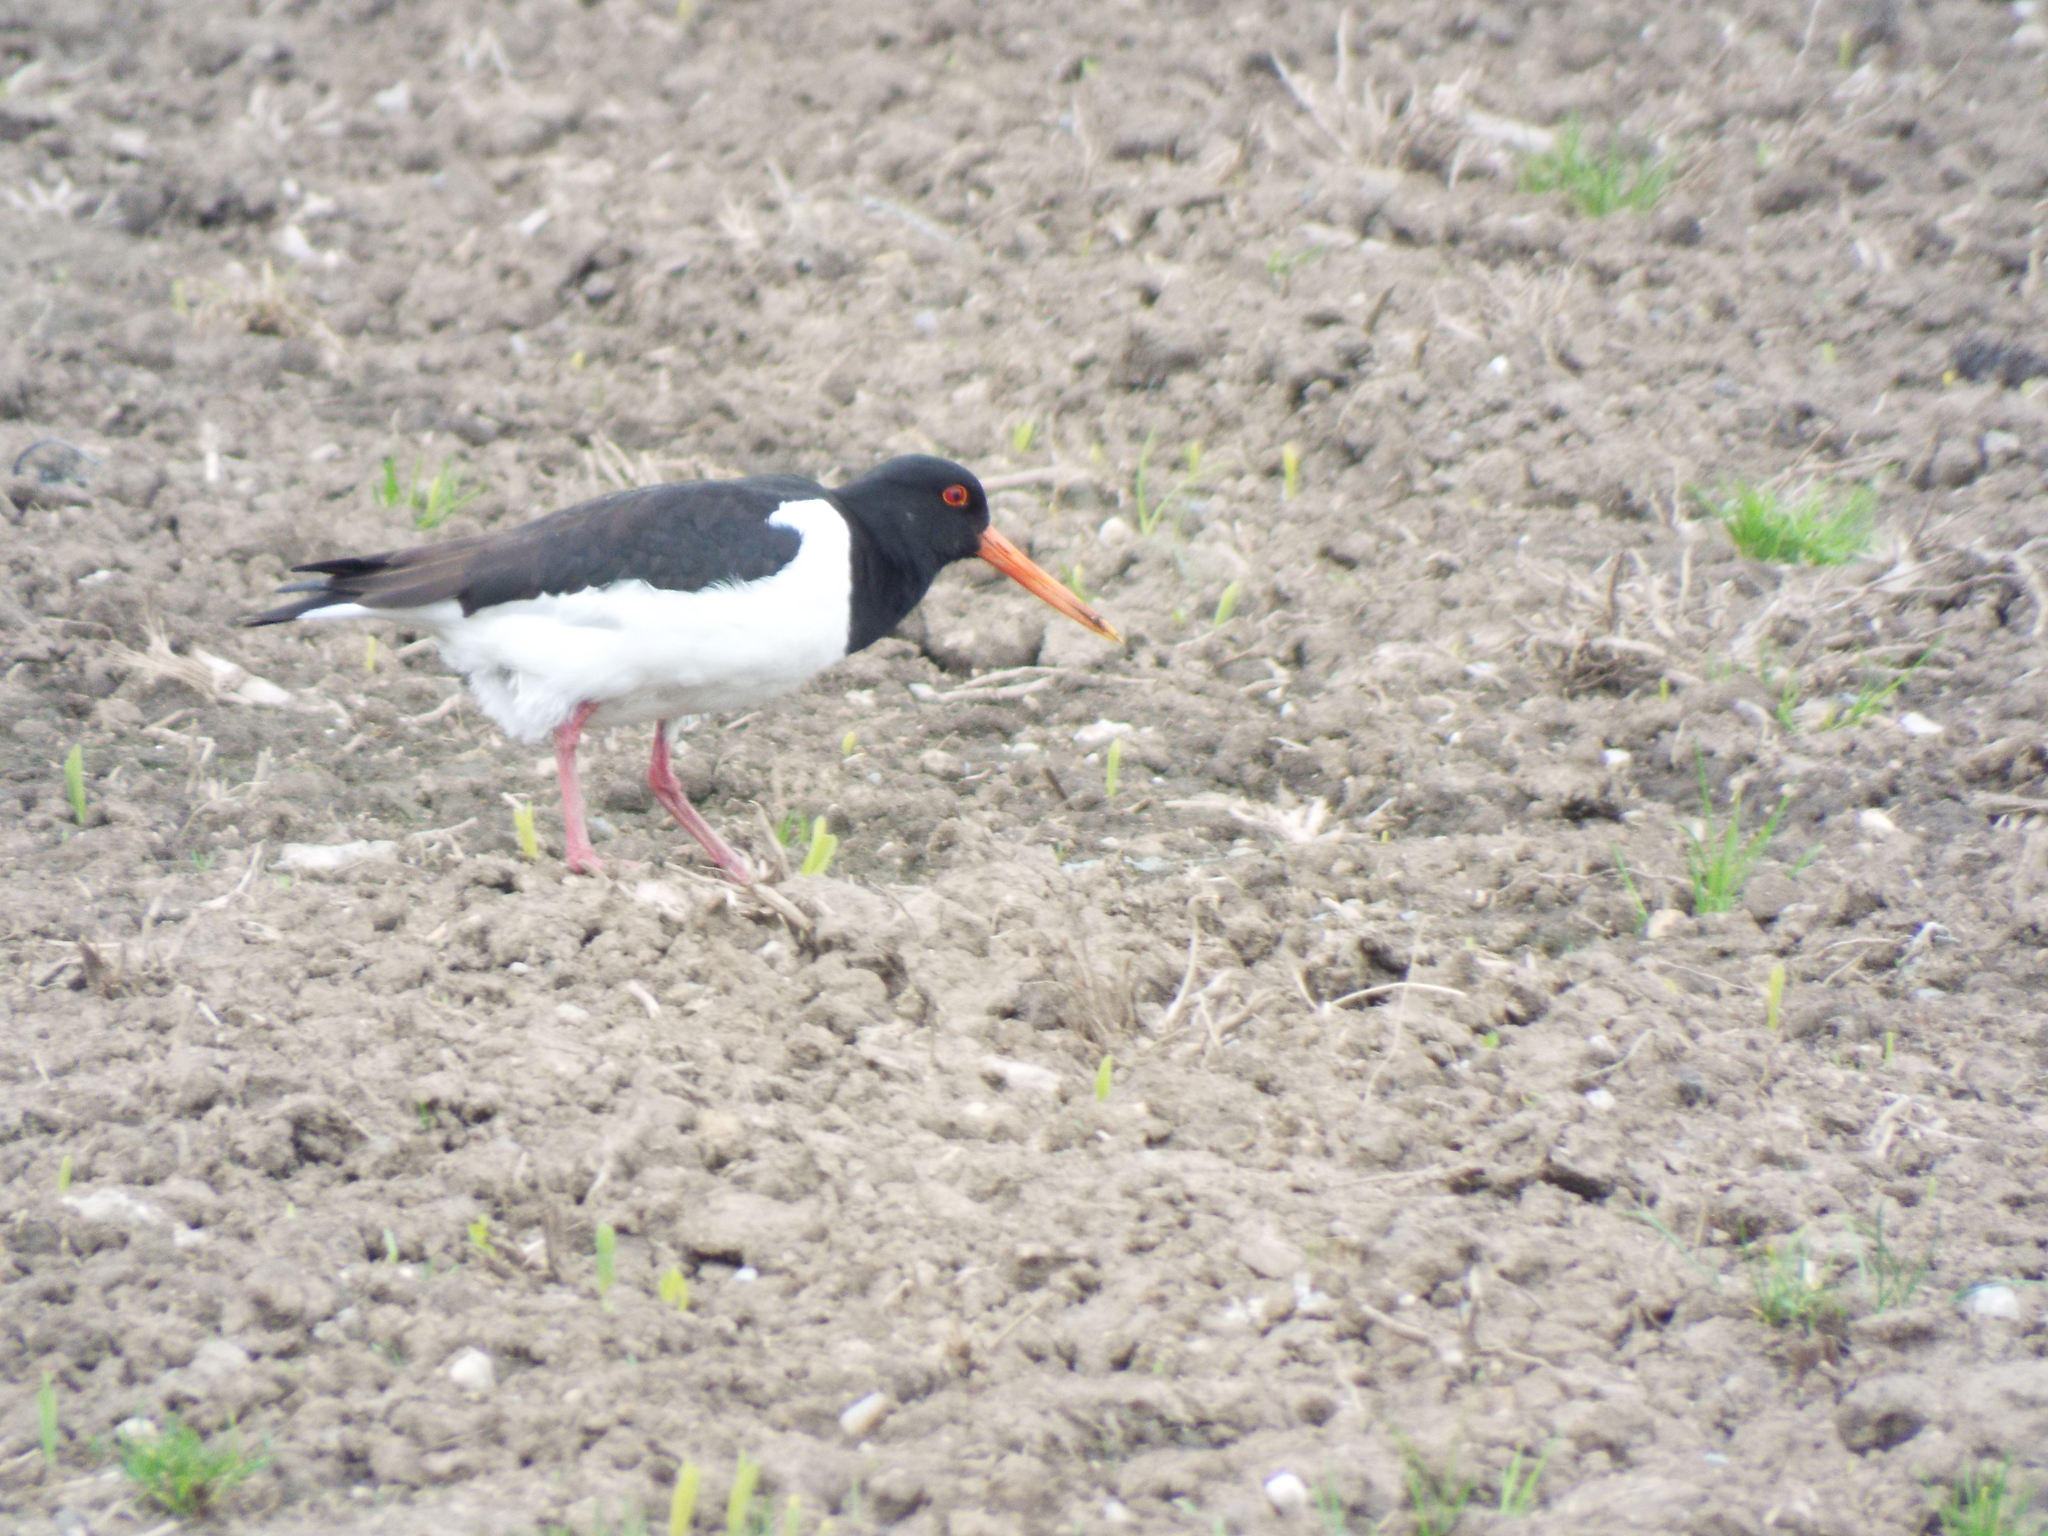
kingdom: Animalia
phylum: Chordata
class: Aves
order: Charadriiformes
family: Haematopodidae
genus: Haematopus
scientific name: Haematopus ostralegus
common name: Eurasian oystercatcher
